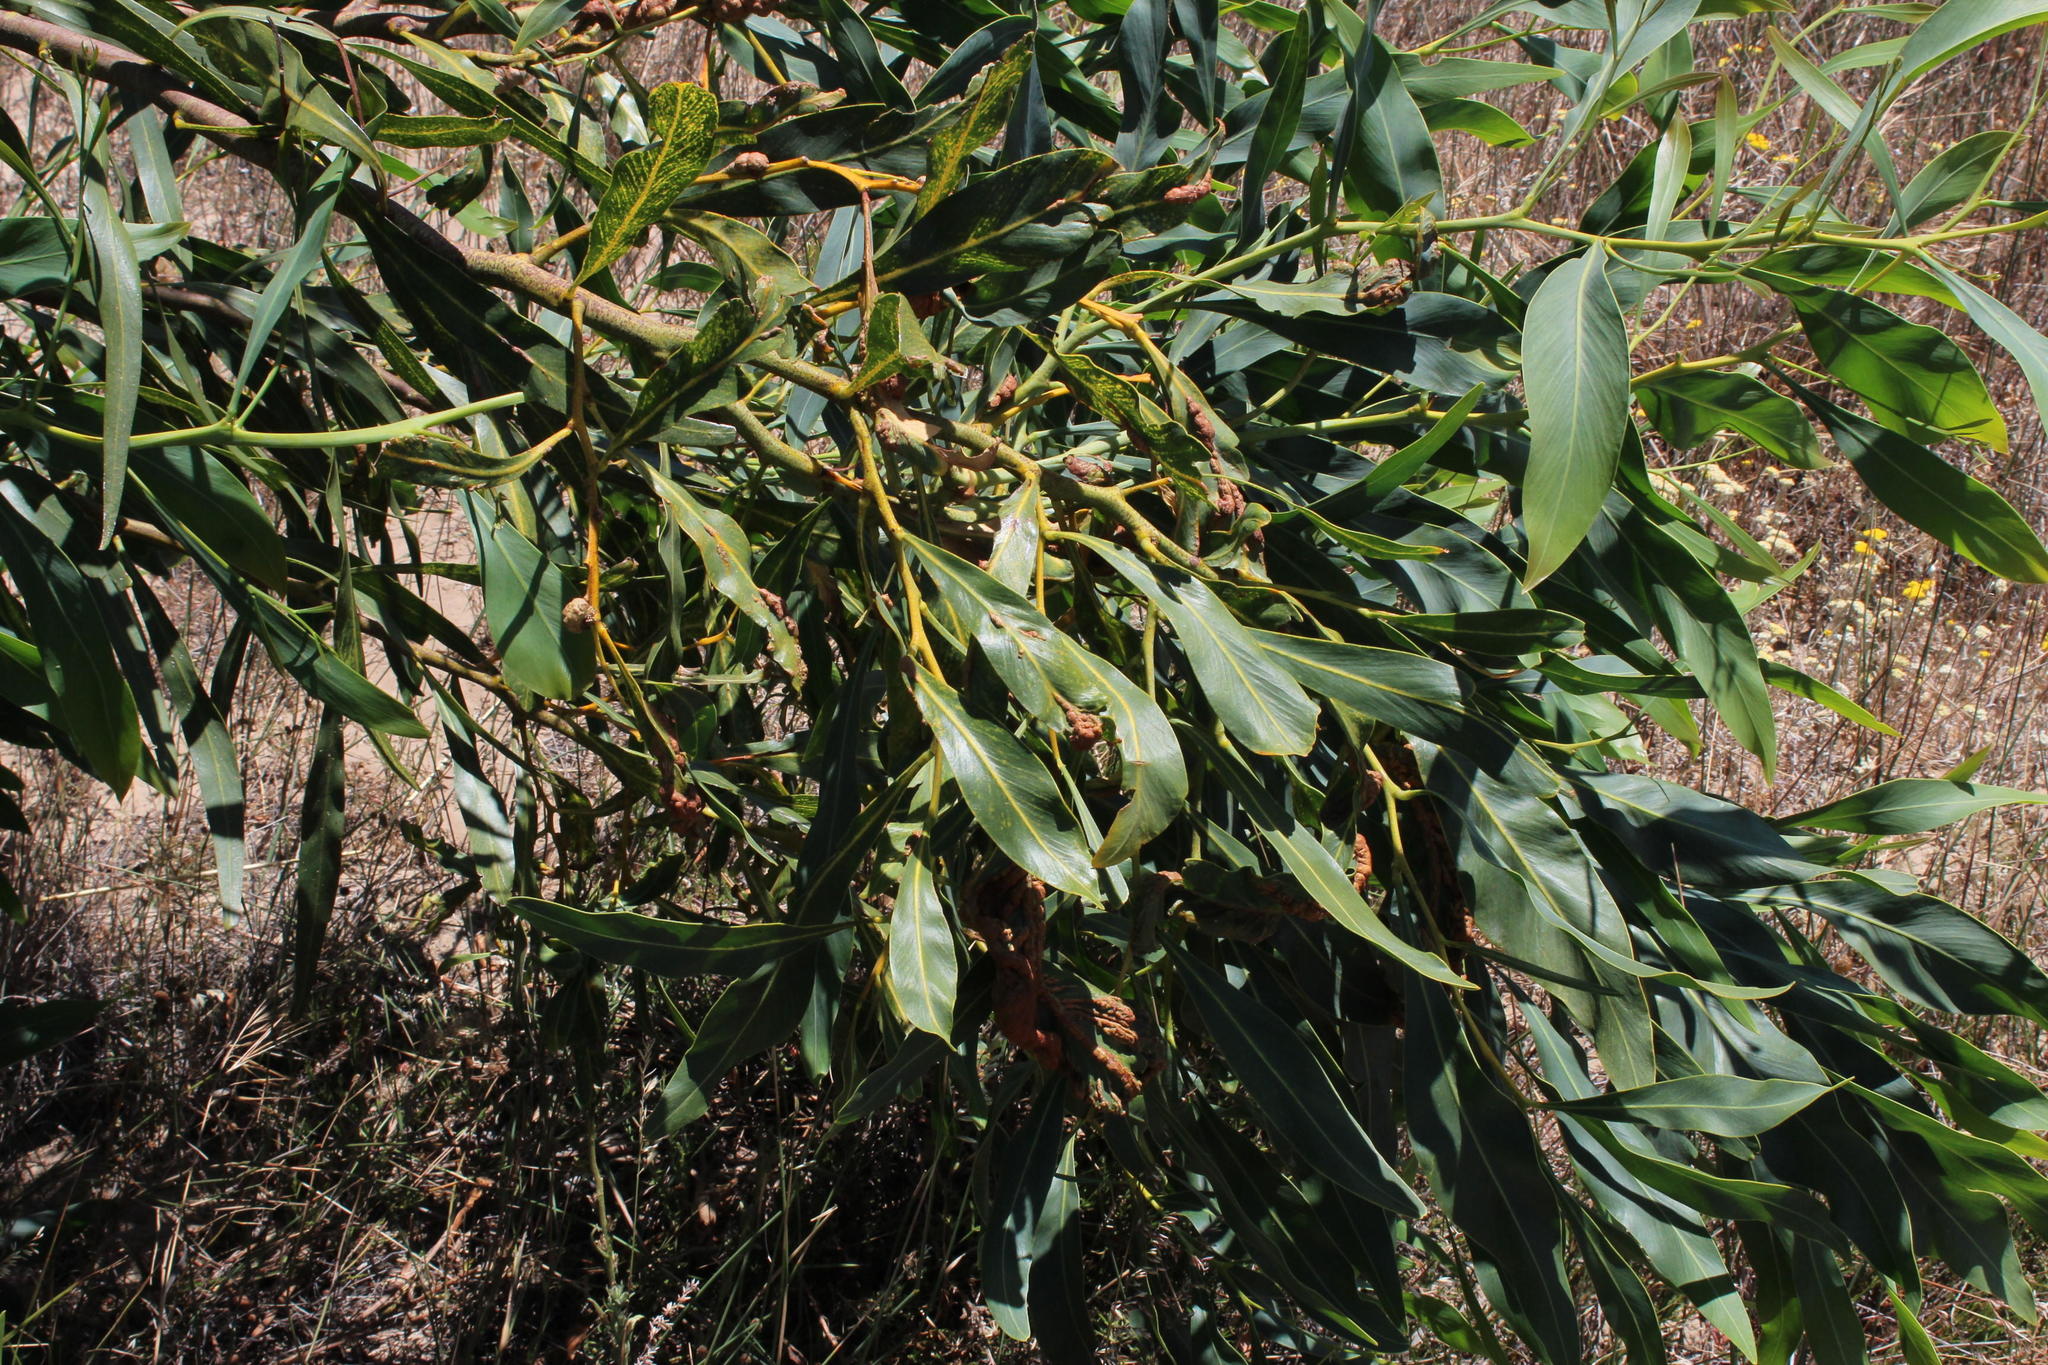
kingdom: Fungi
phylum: Basidiomycota
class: Pucciniomycetes
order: Pucciniales
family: Uromycladiaceae
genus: Uromycladium
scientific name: Uromycladium morrisii
